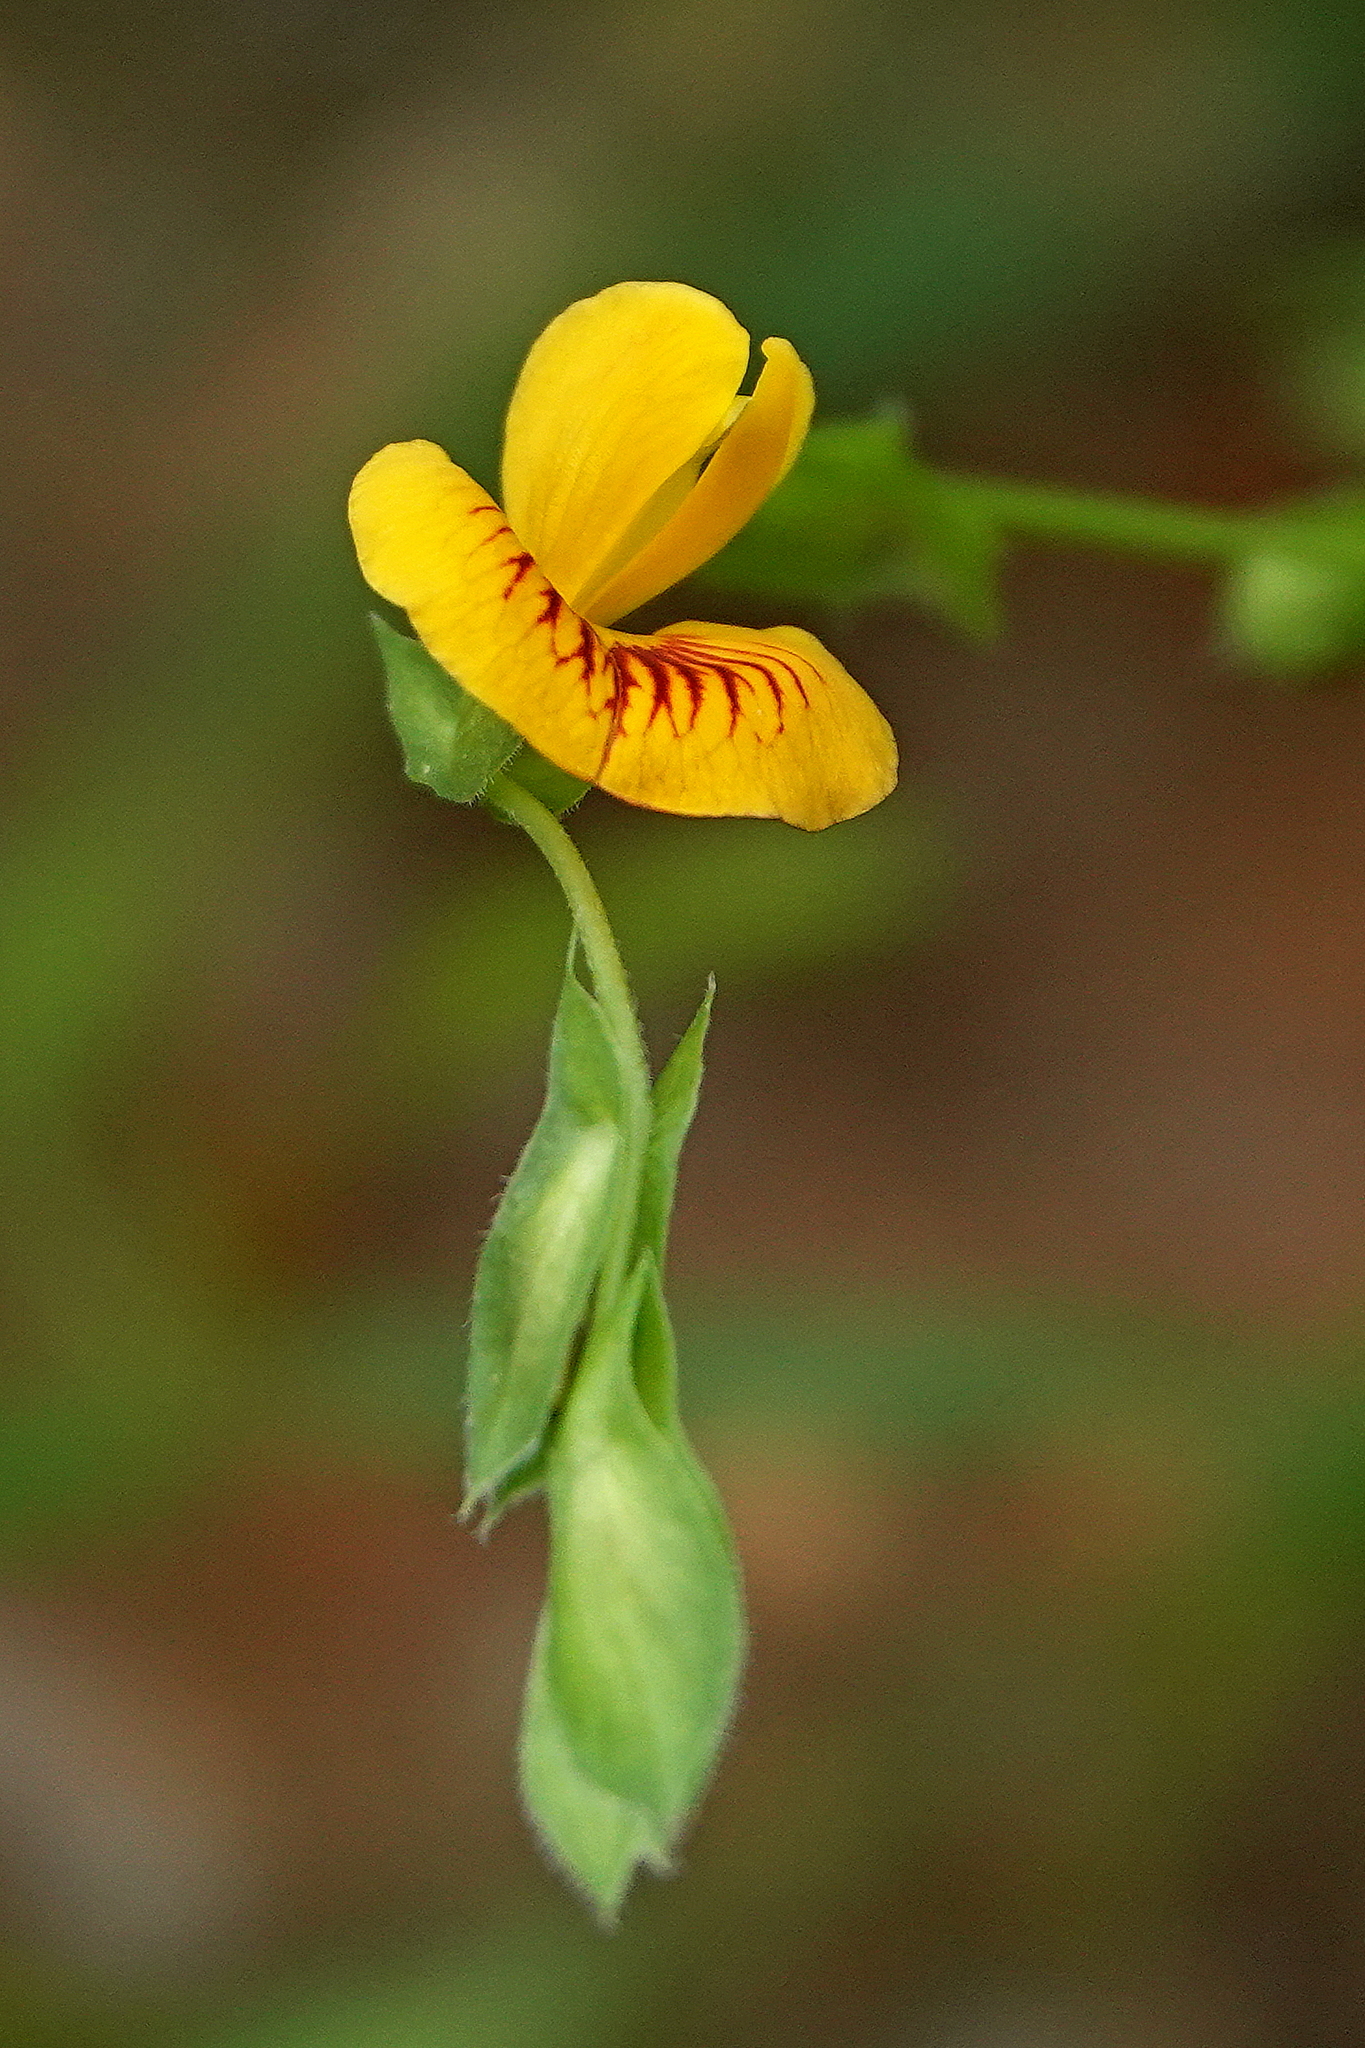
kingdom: Plantae
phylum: Tracheophyta
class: Magnoliopsida
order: Fabales
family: Fabaceae
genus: Zornia
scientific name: Zornia dyctiocarpa
